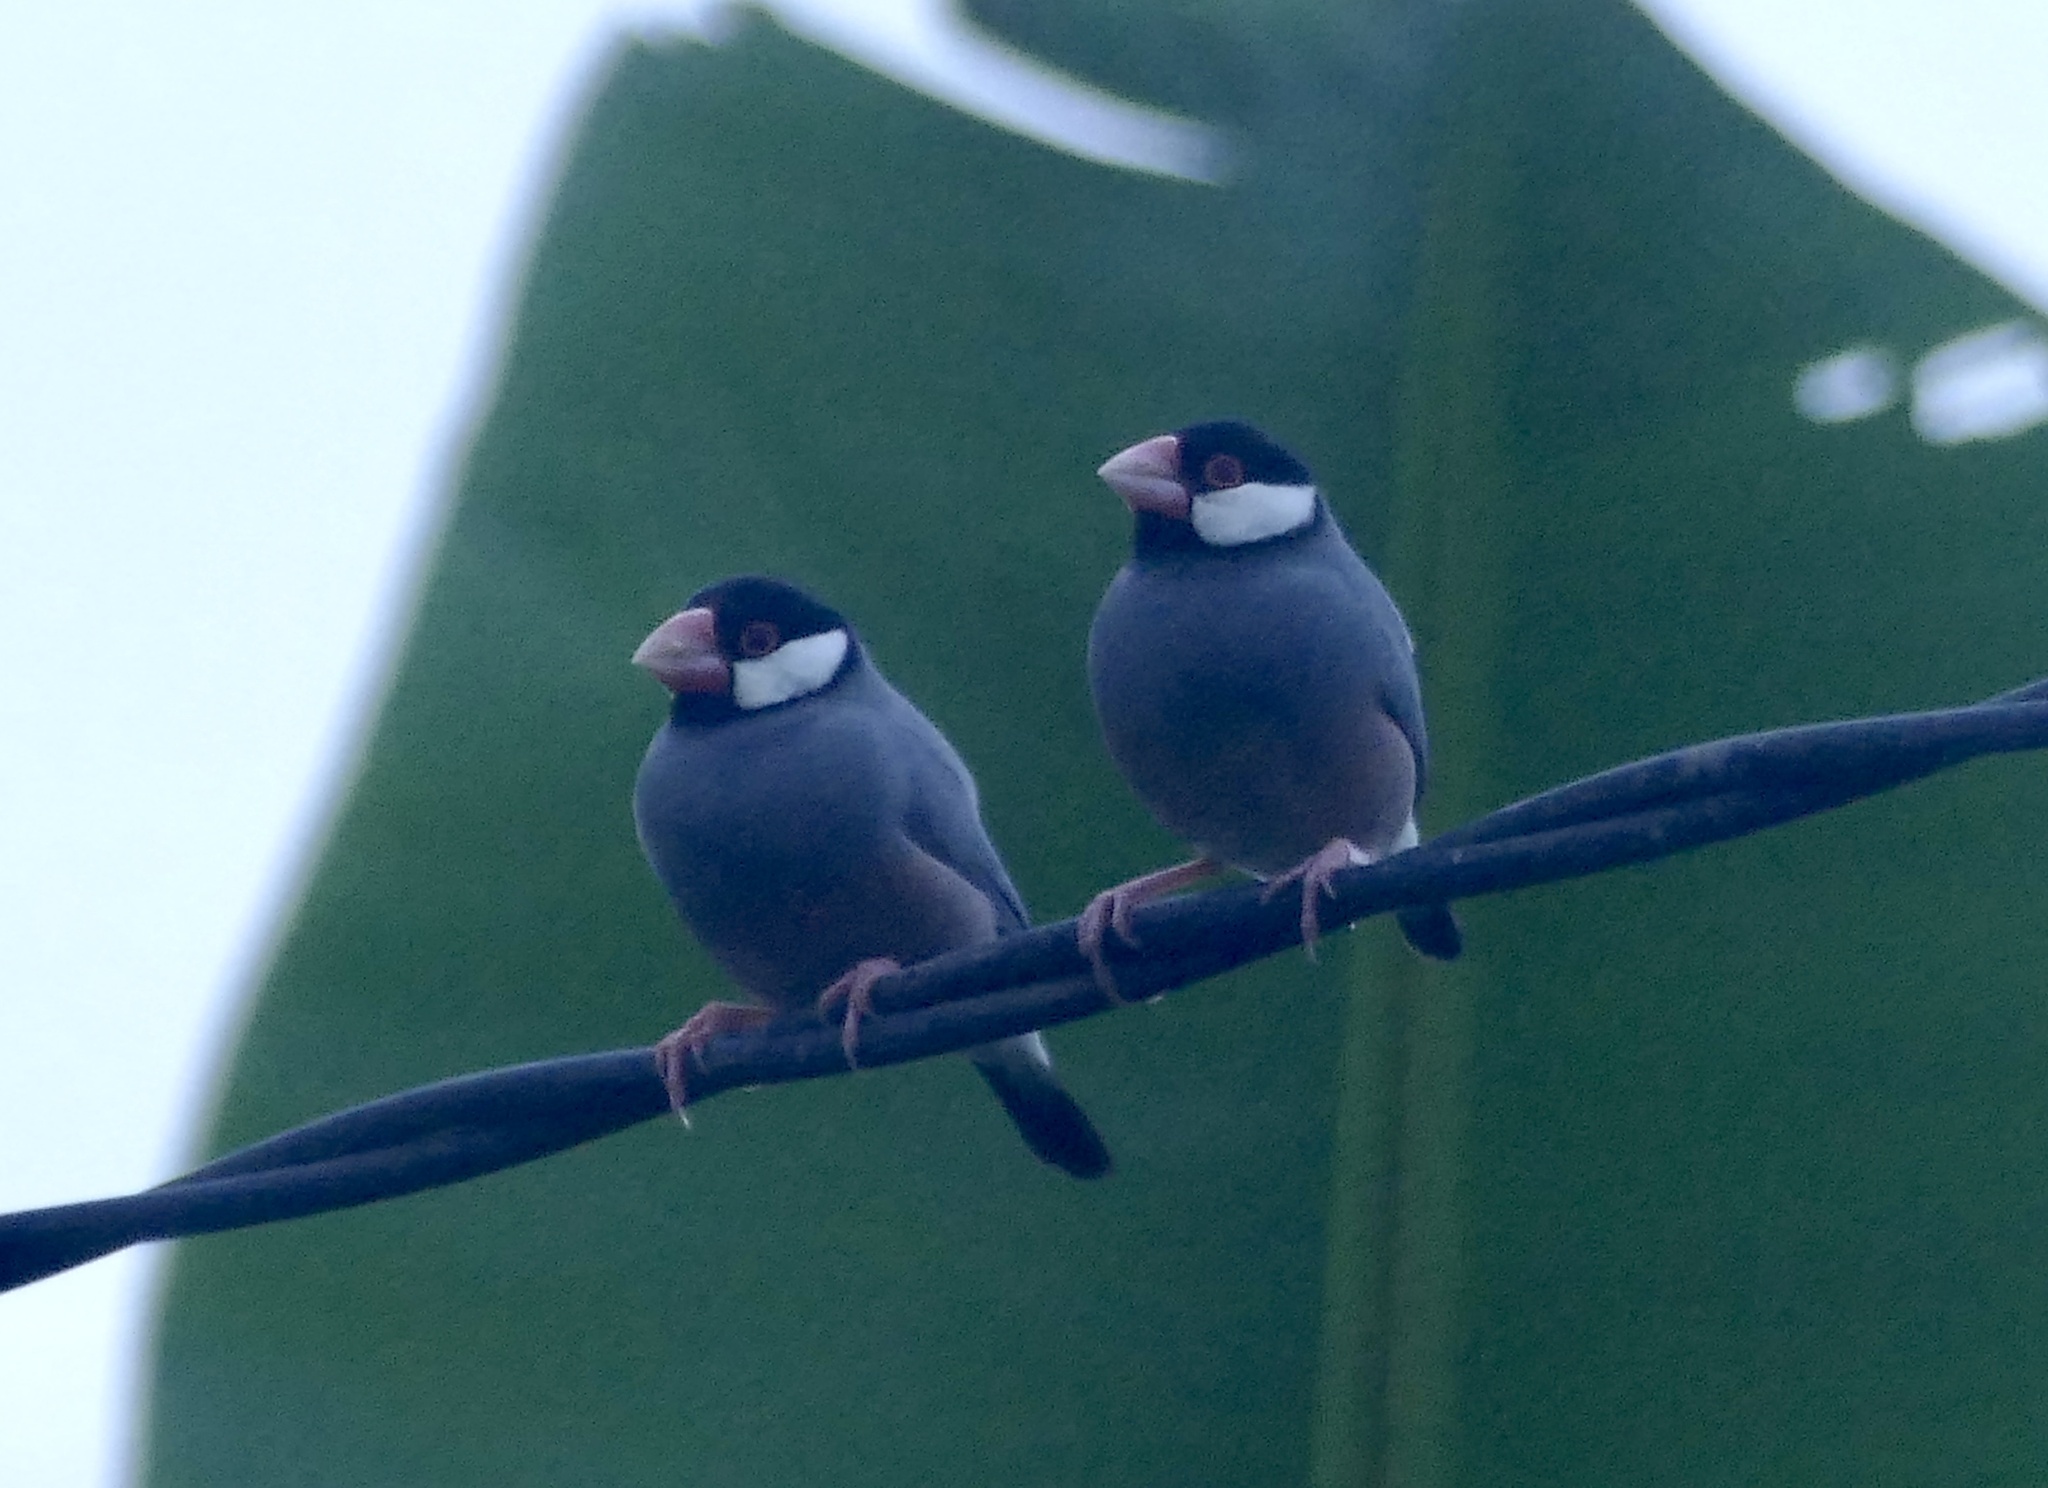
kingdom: Animalia
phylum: Chordata
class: Aves
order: Passeriformes
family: Estrildidae
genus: Lonchura
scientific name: Lonchura oryzivora
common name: Java sparrow
